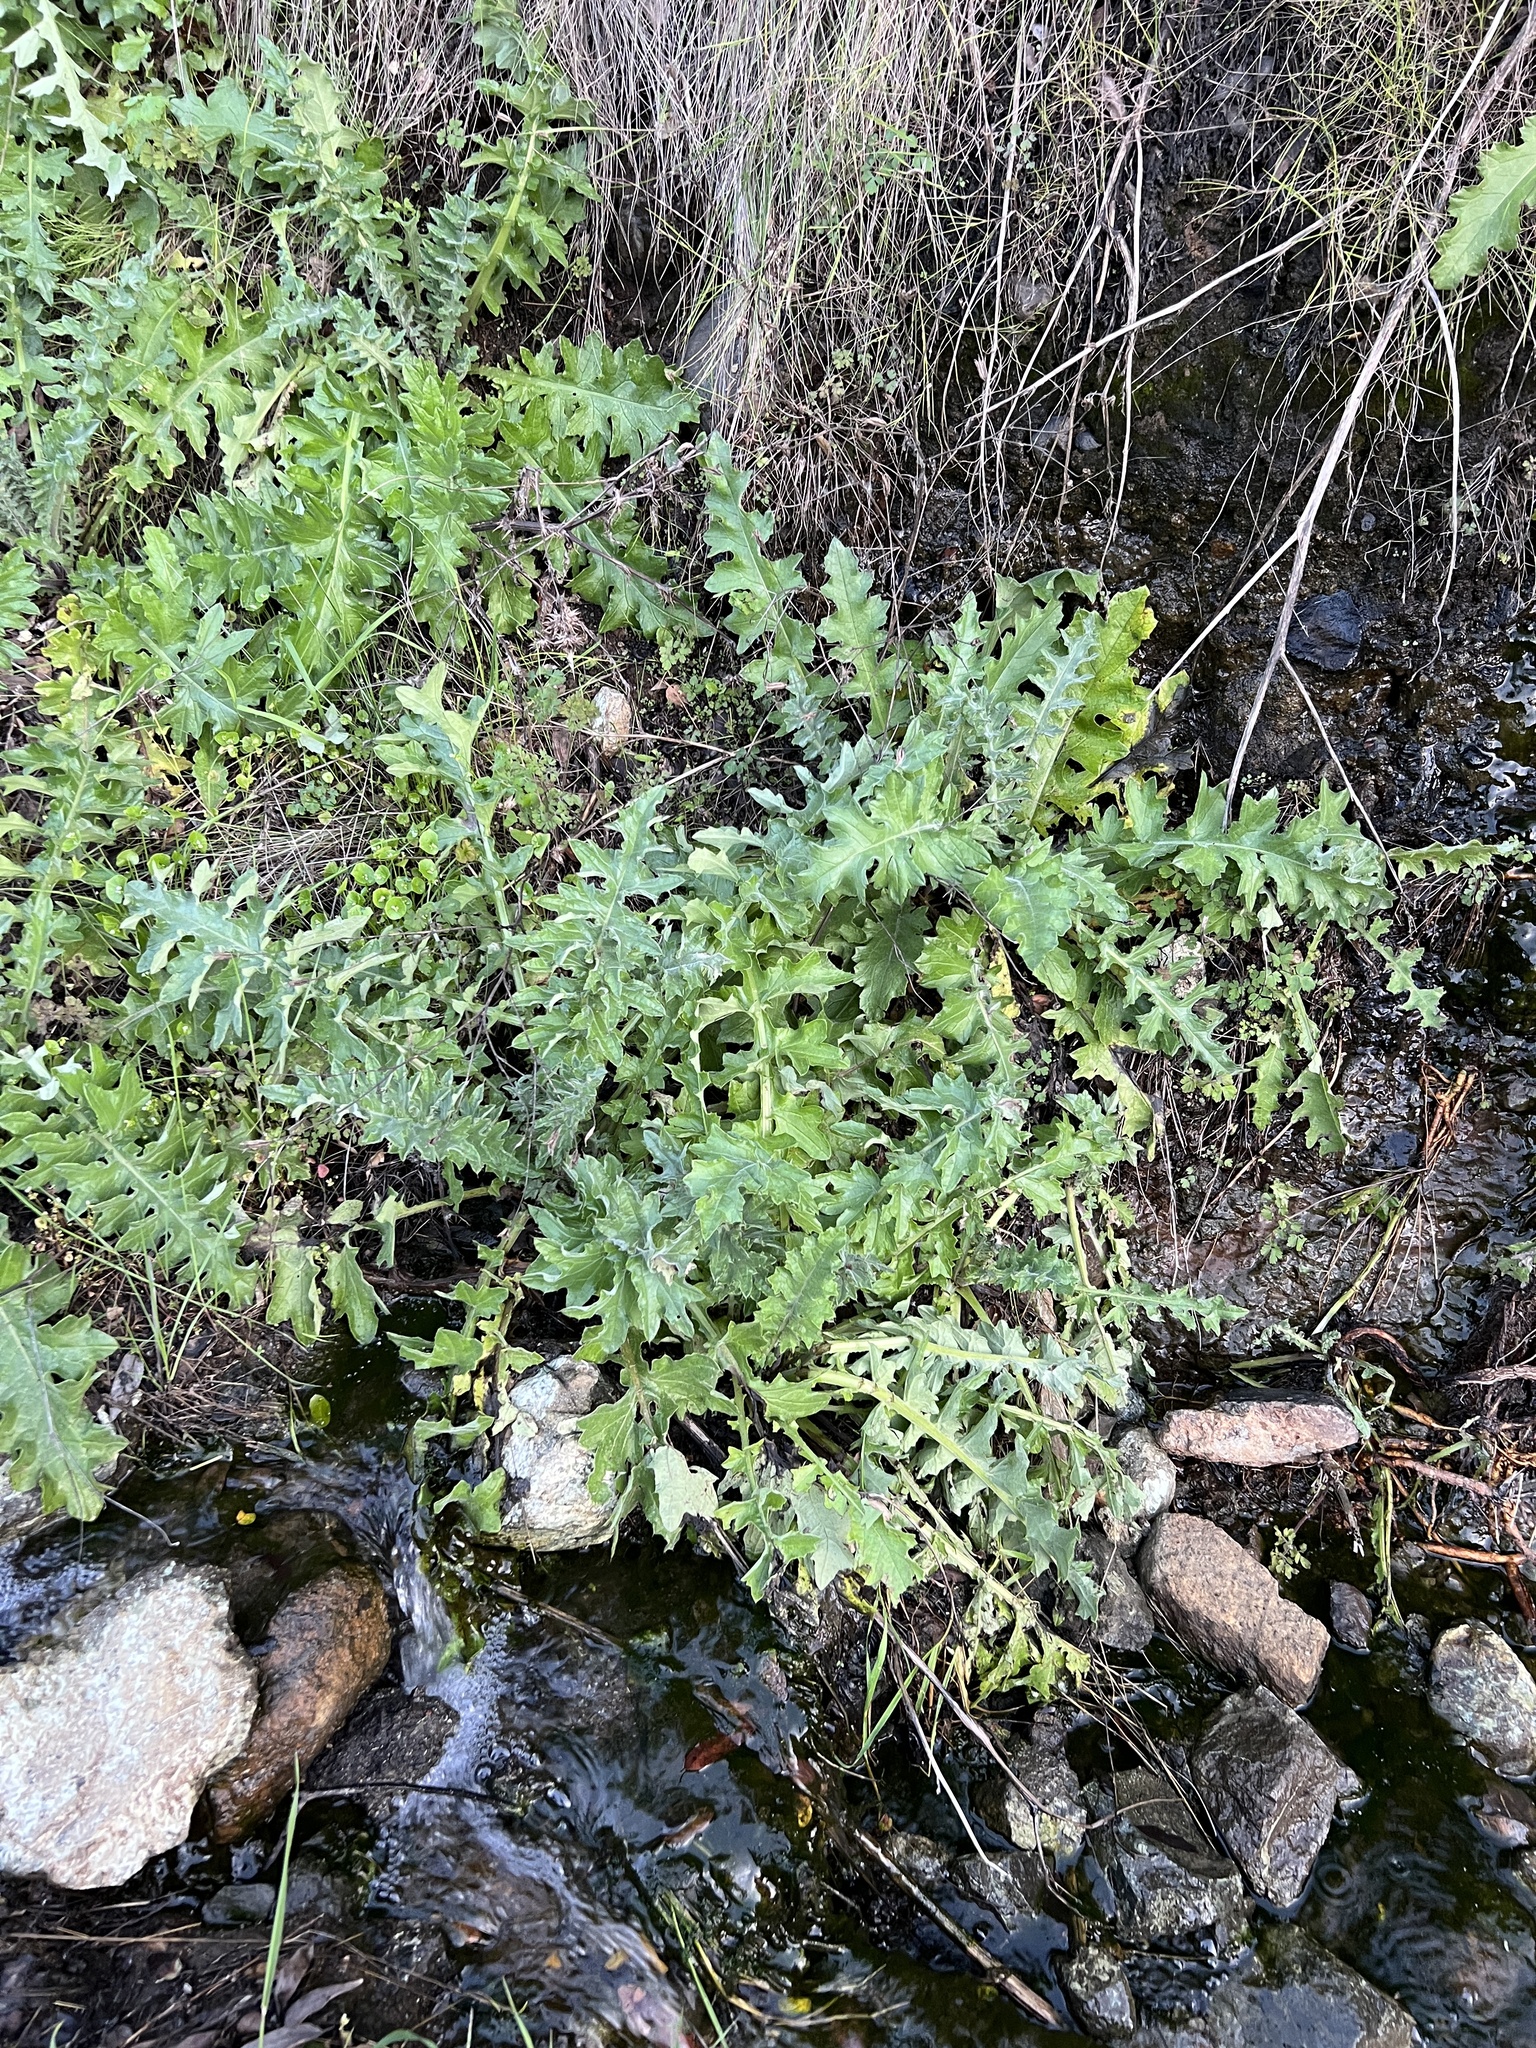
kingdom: Plantae
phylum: Tracheophyta
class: Magnoliopsida
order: Asterales
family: Asteraceae
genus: Cirsium
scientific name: Cirsium fontinale
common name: Fountain thistle
